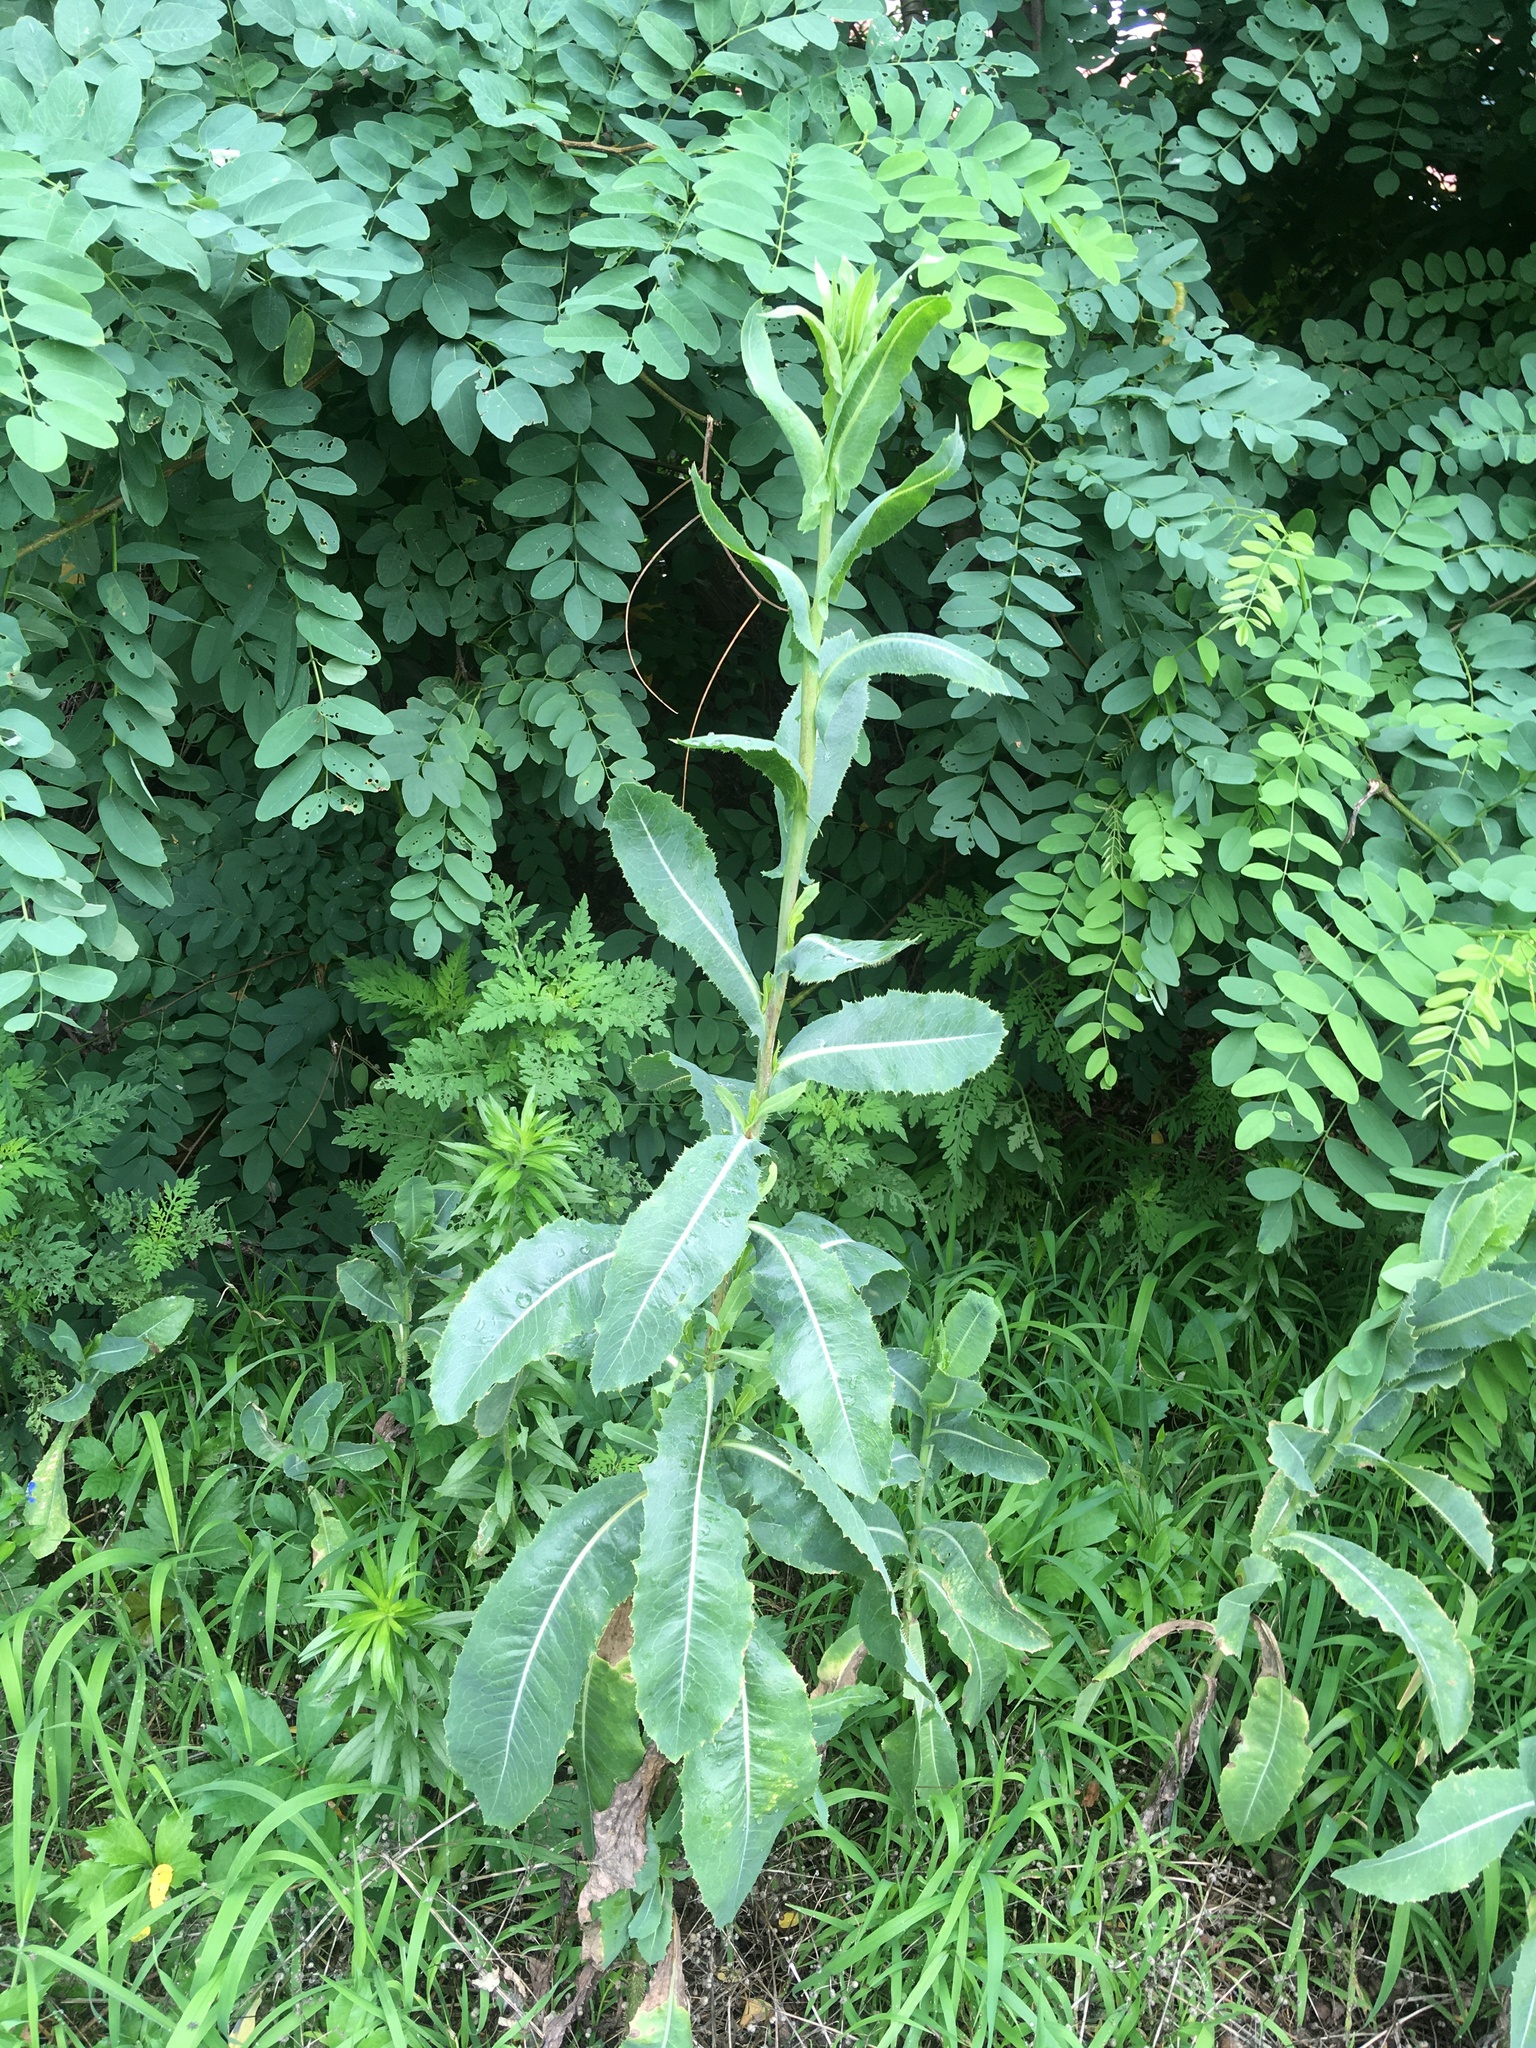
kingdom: Plantae
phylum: Tracheophyta
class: Magnoliopsida
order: Asterales
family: Asteraceae
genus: Lactuca
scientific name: Lactuca serriola
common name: Prickly lettuce
